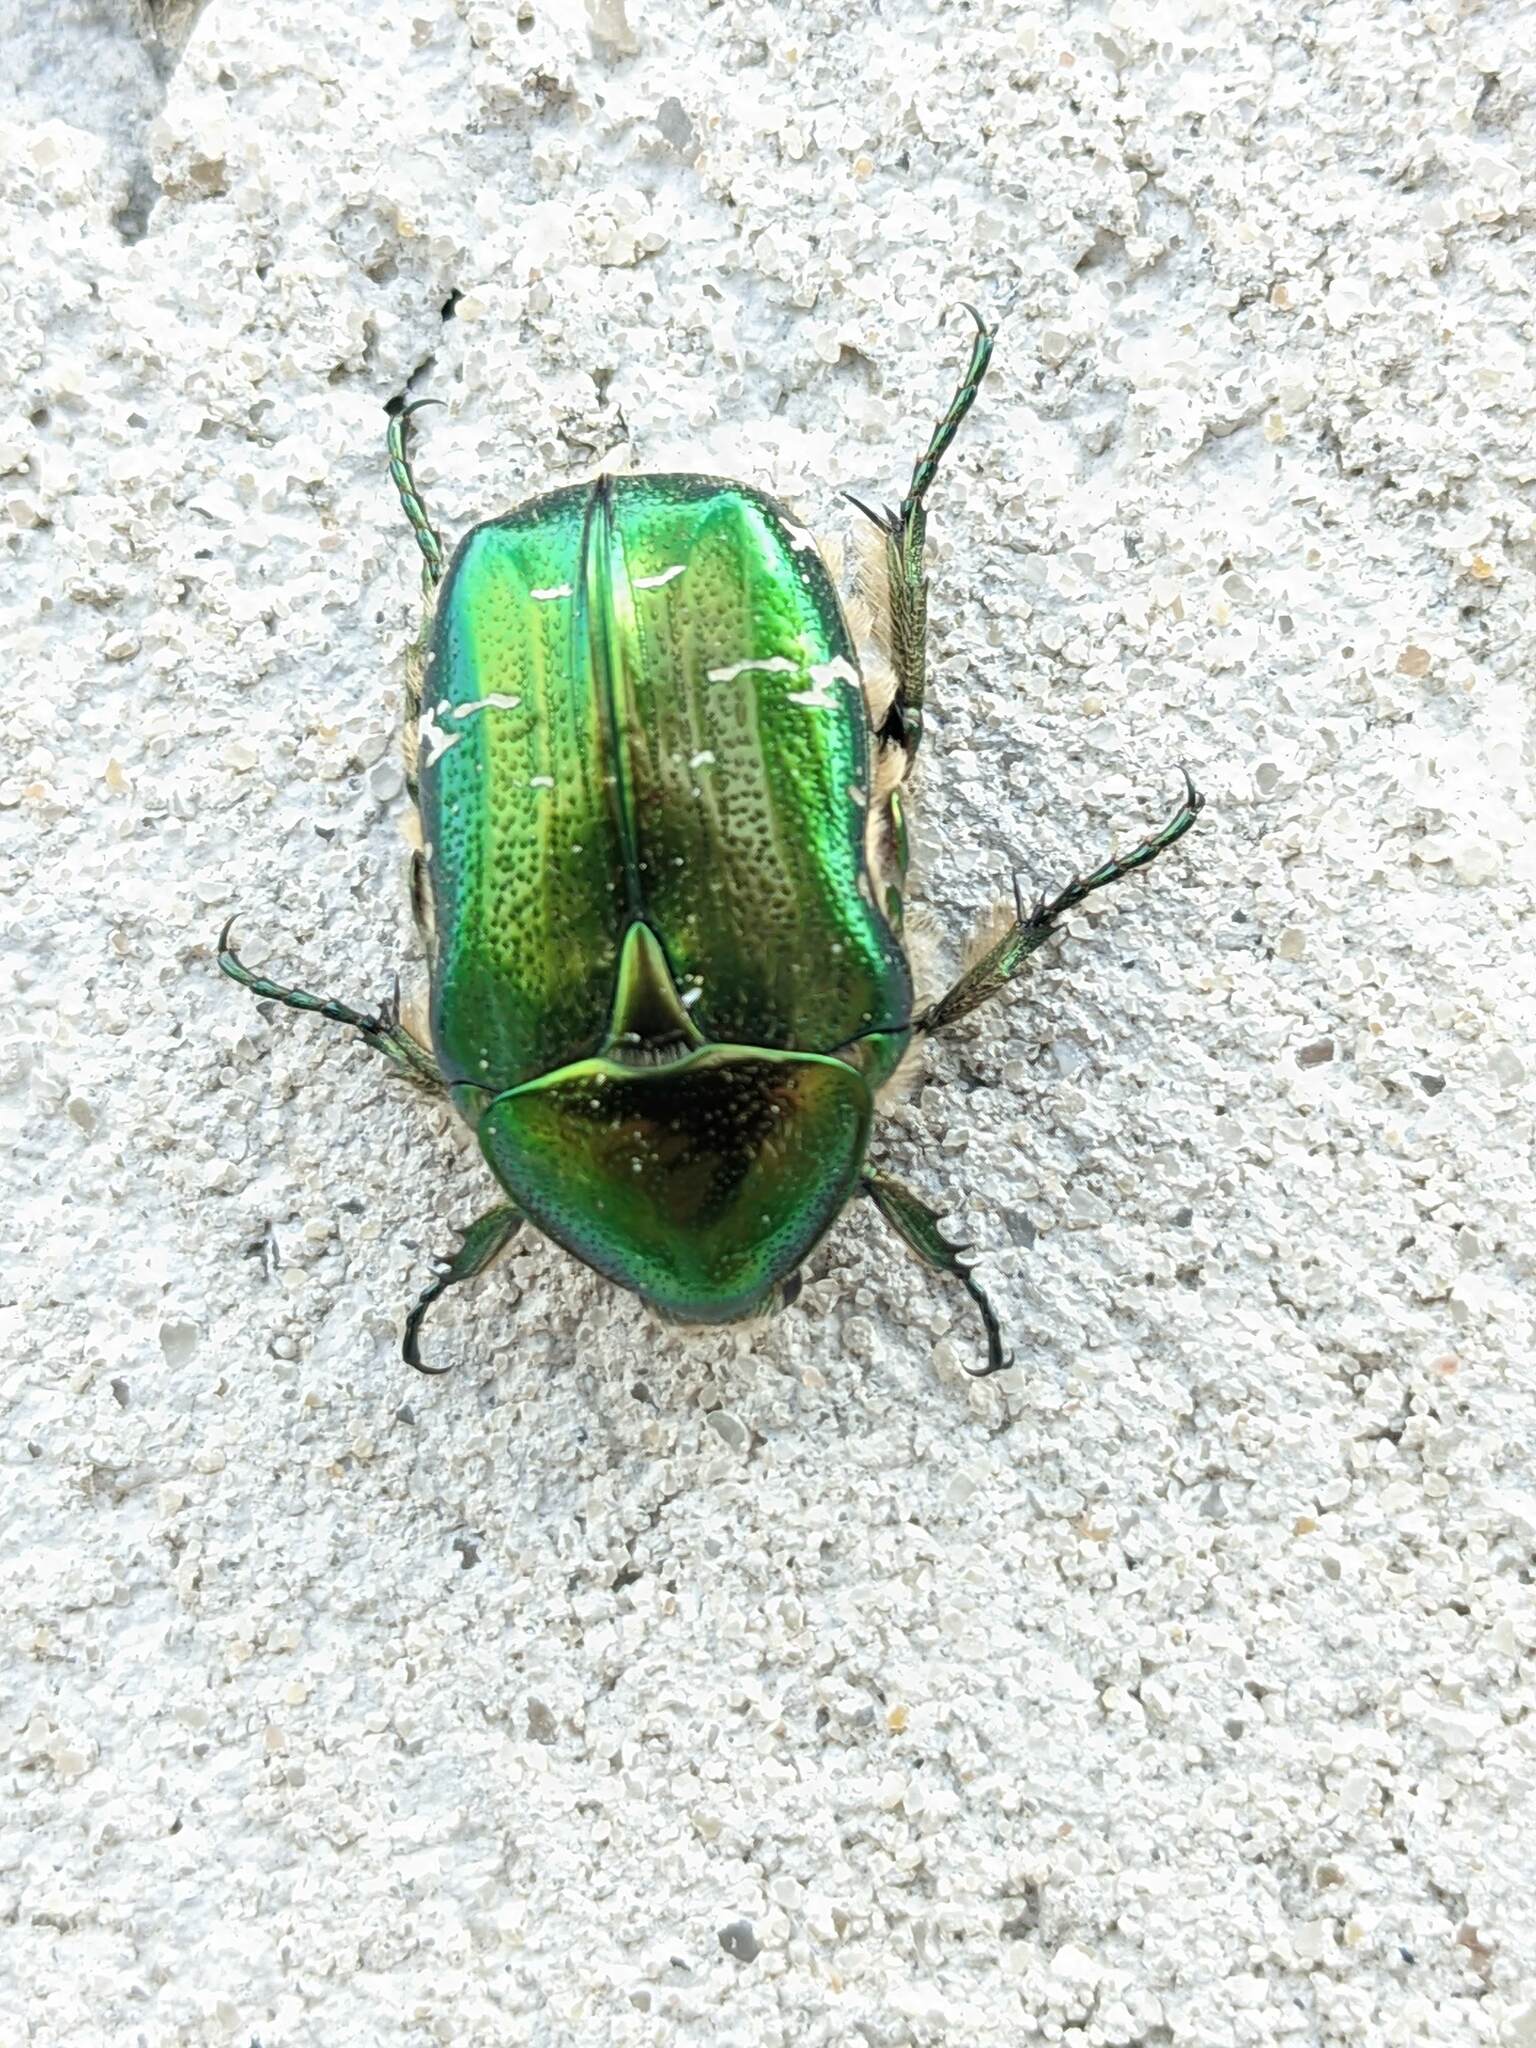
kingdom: Animalia
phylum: Arthropoda
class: Insecta
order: Coleoptera
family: Scarabaeidae
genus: Cetonia
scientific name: Cetonia aurata
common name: Rose chafer
